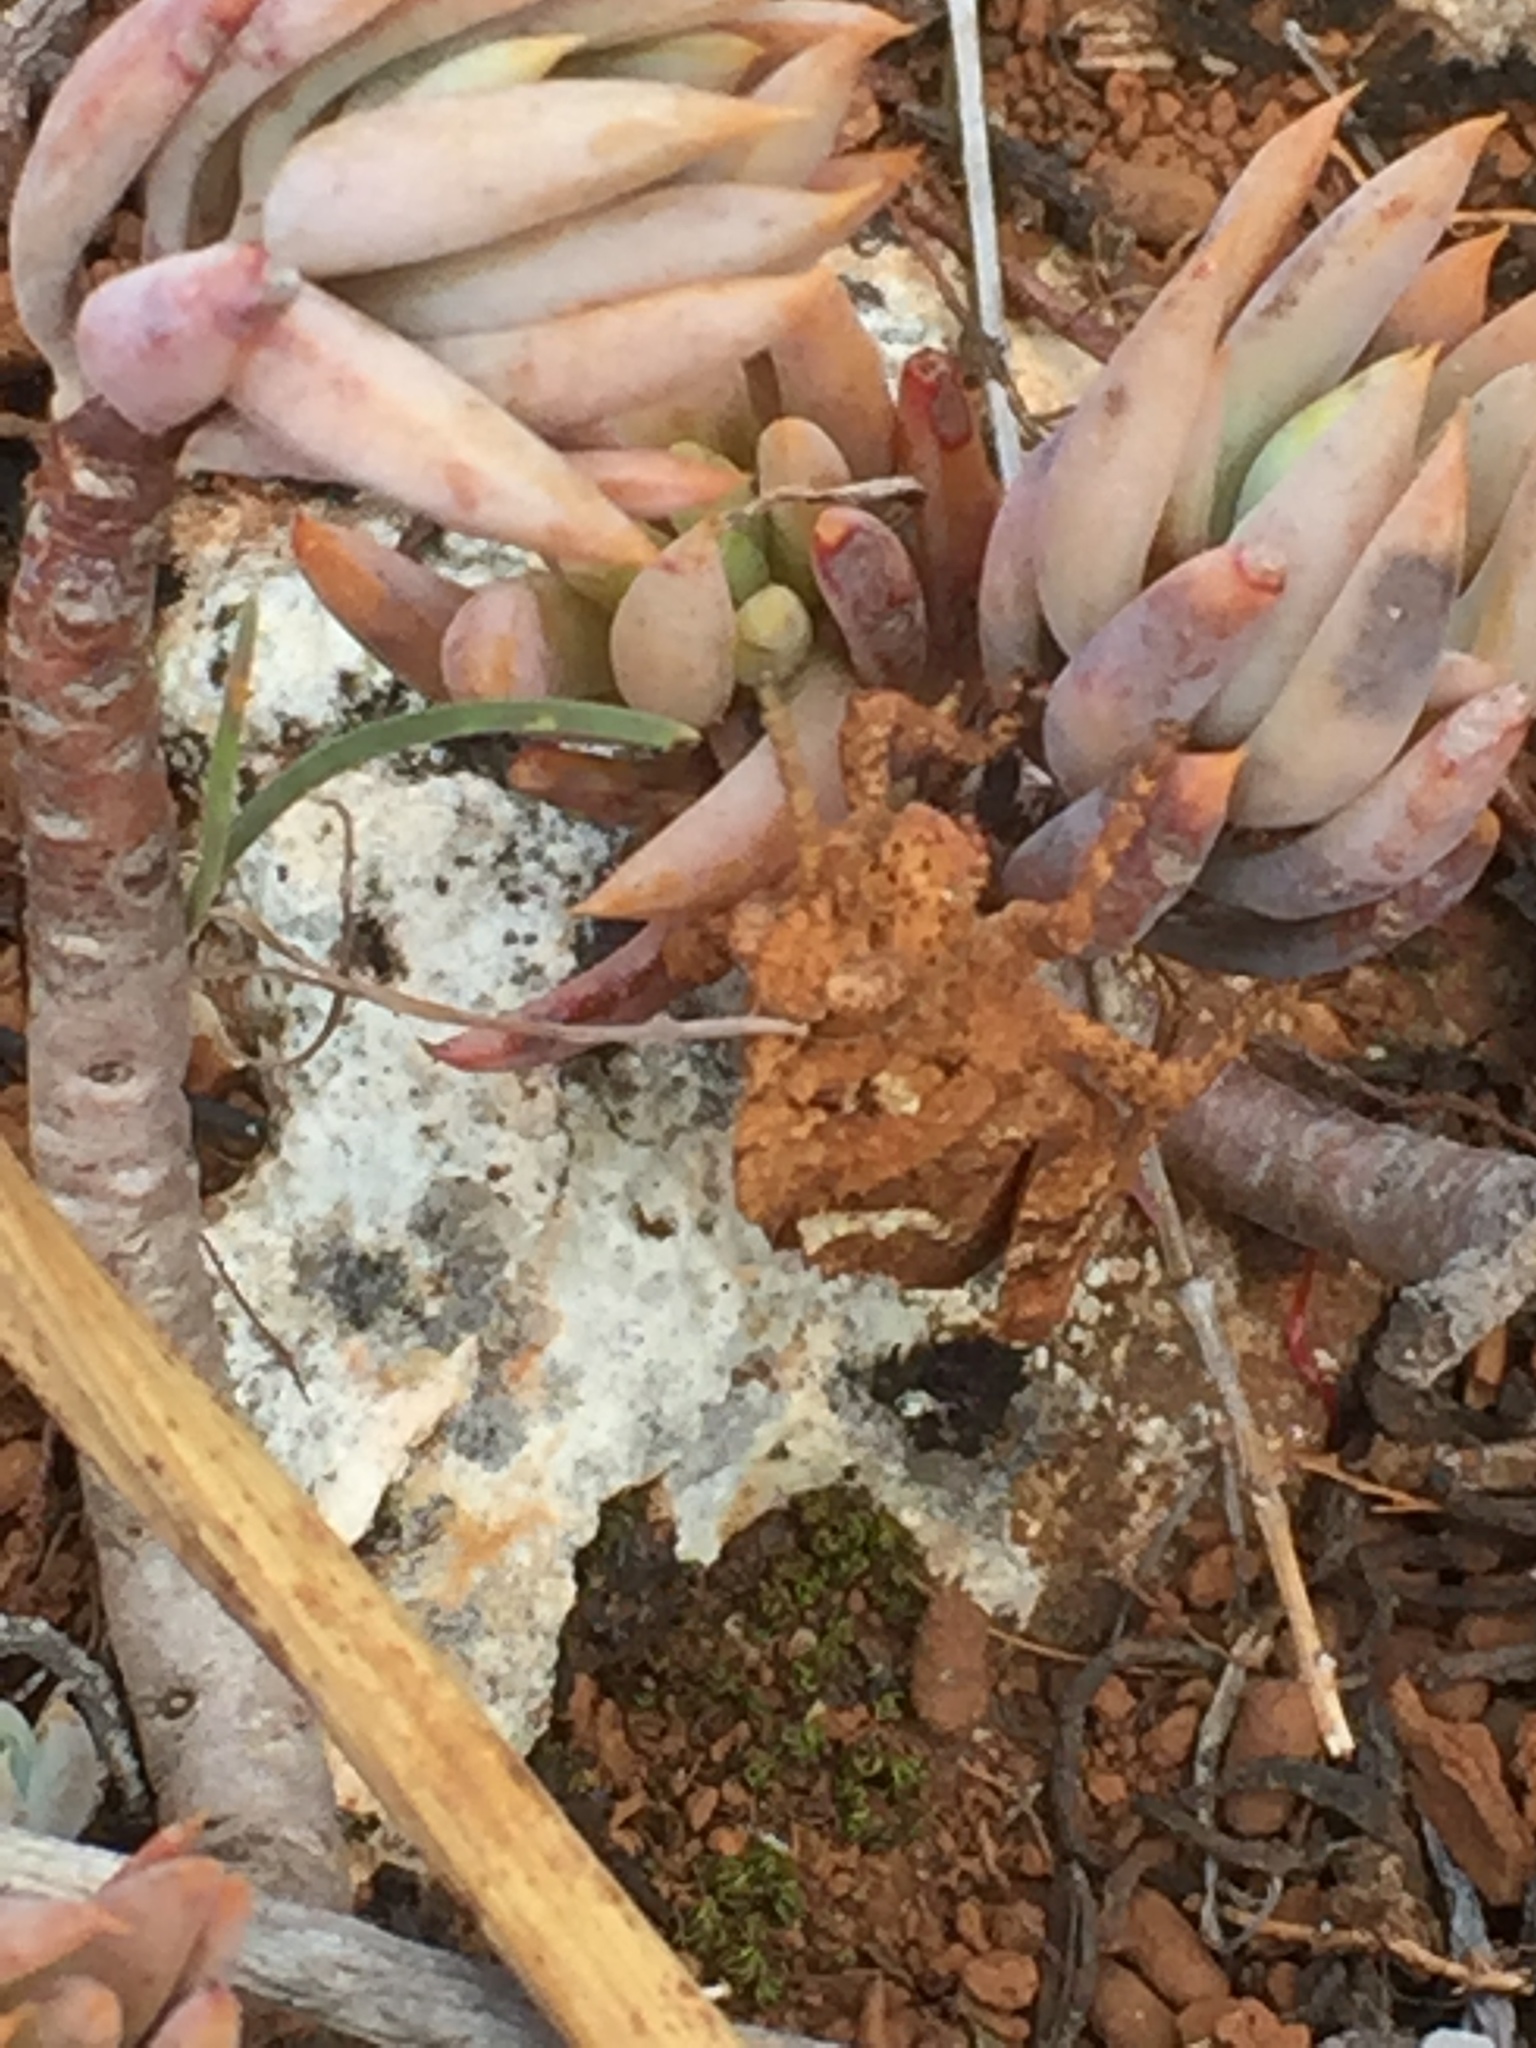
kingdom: Animalia
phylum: Arthropoda
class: Insecta
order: Orthoptera
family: Pamphagidae
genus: Ocnerodes
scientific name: Ocnerodes fallaciosus
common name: Misleading stone grasshopper
